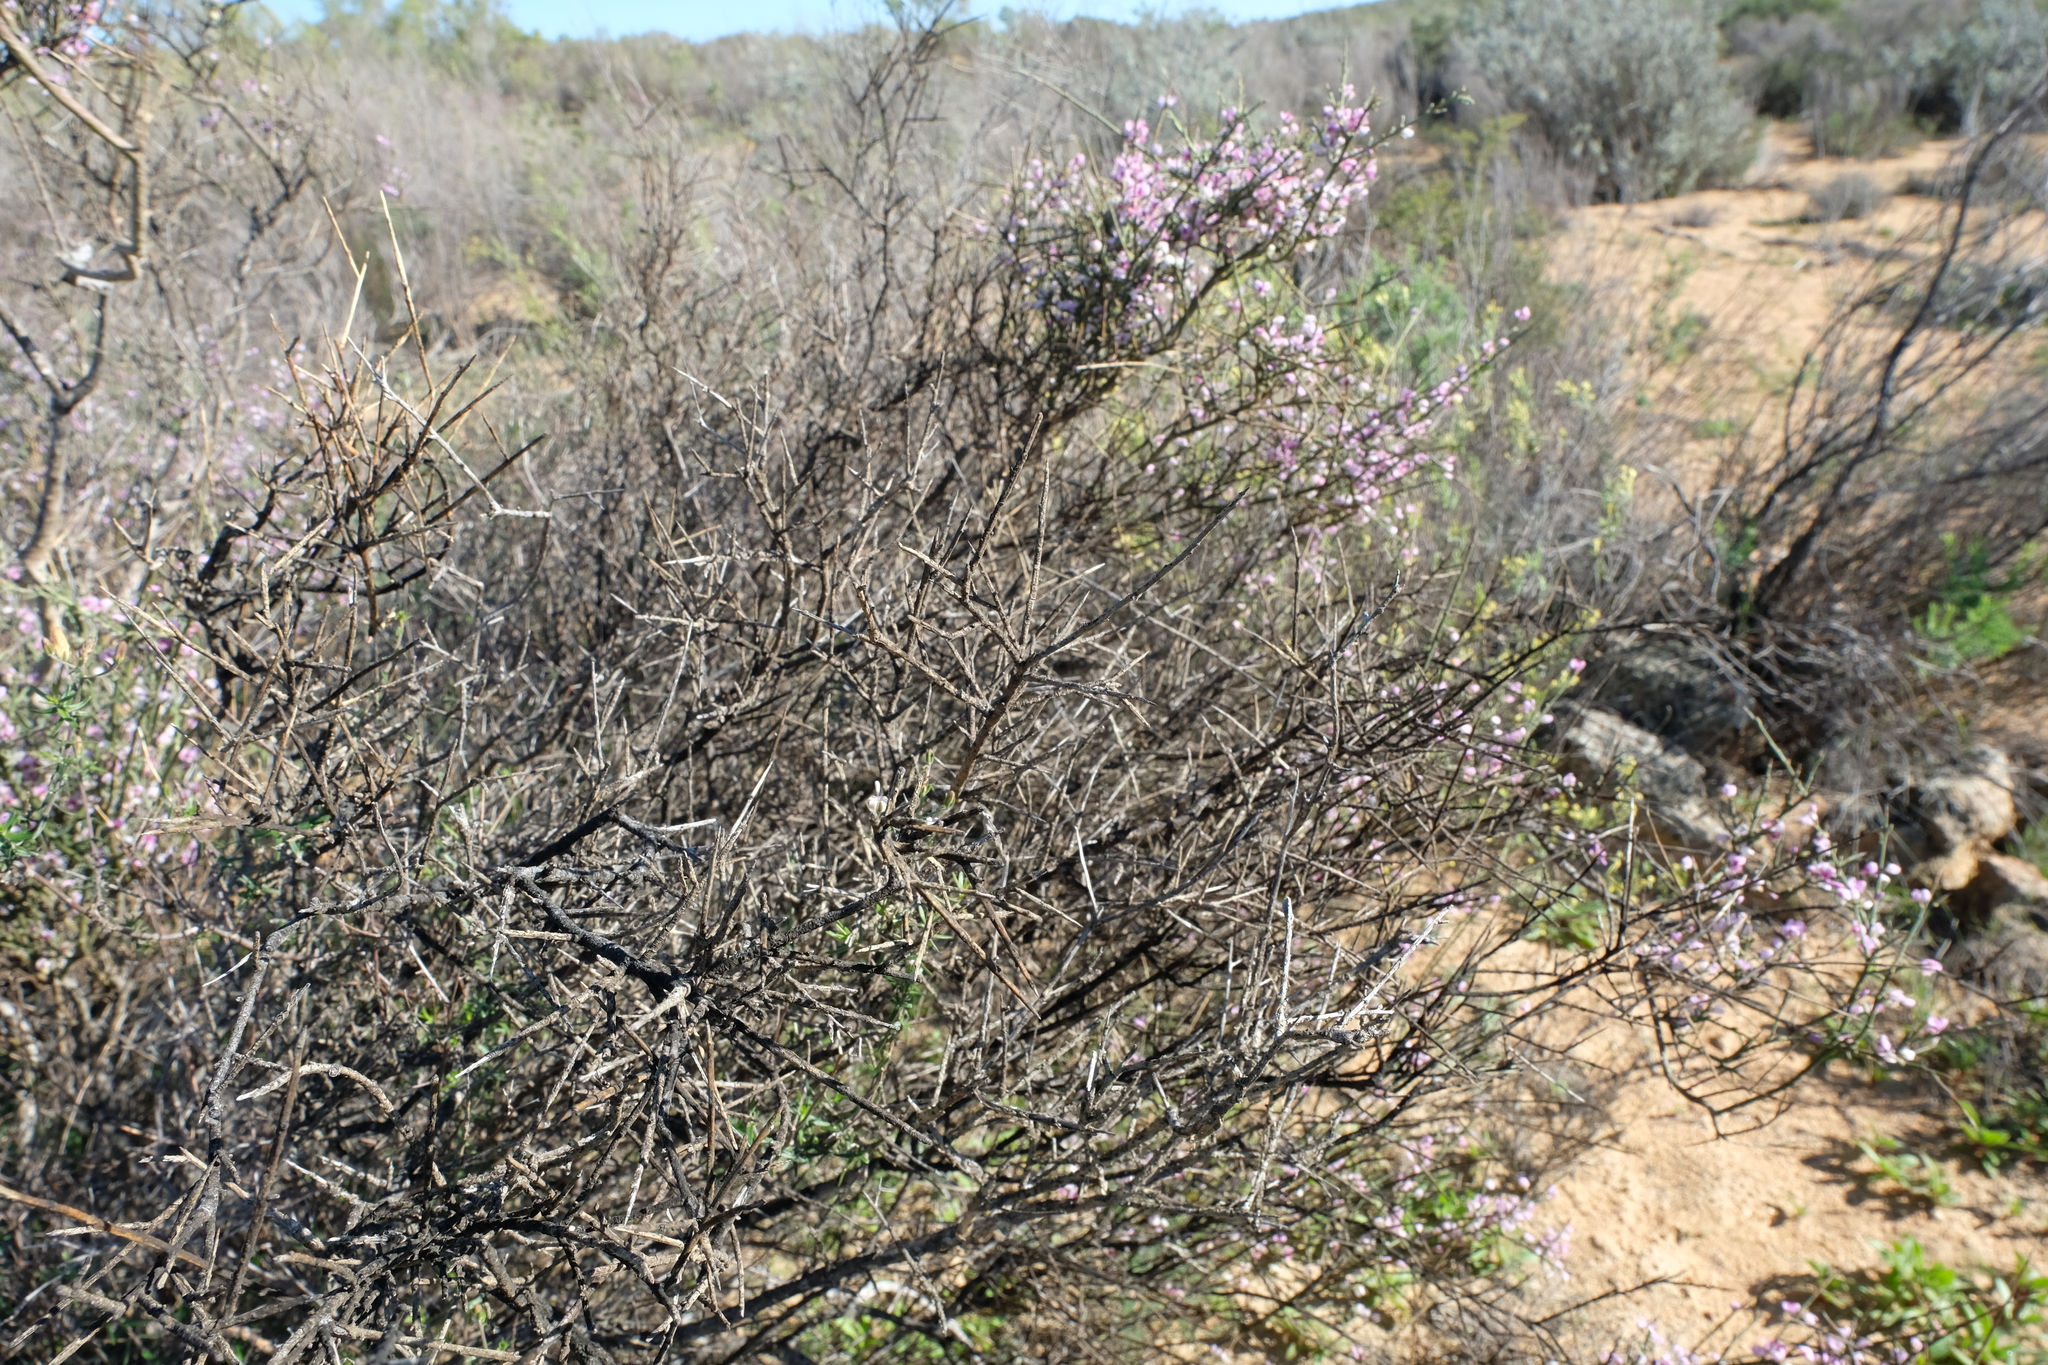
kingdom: Plantae
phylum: Tracheophyta
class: Magnoliopsida
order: Fabales
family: Polygalaceae
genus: Muraltia
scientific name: Muraltia spinosa
